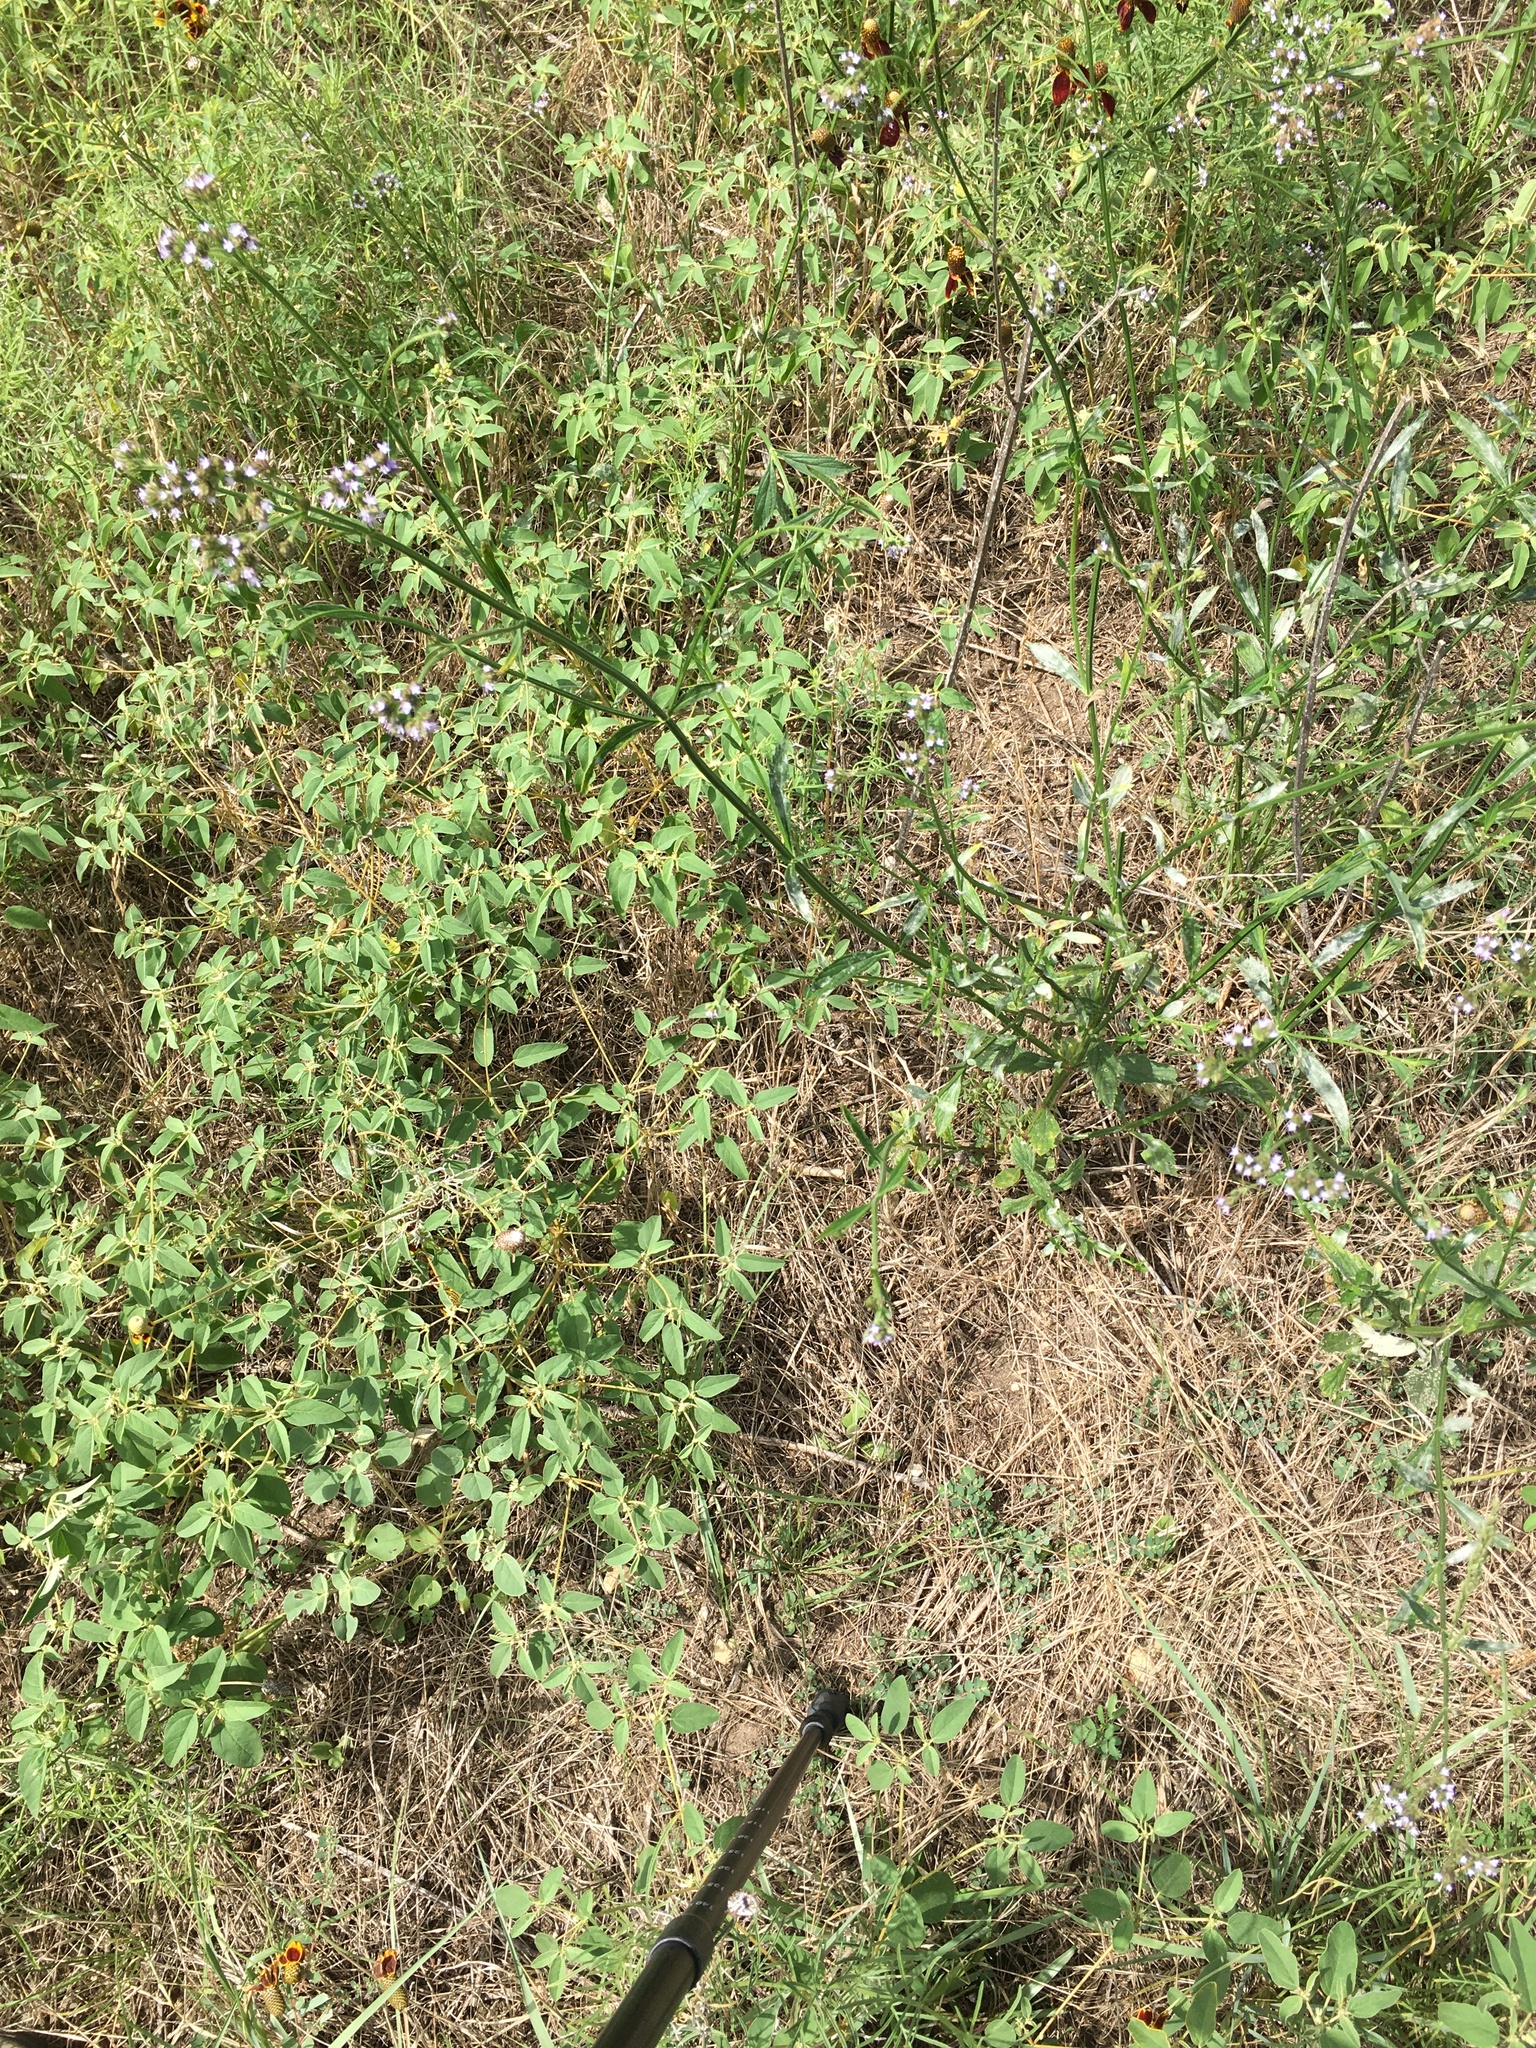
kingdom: Plantae
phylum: Tracheophyta
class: Magnoliopsida
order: Lamiales
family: Verbenaceae
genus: Verbena
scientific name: Verbena brasiliensis
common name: Brazilian vervain
